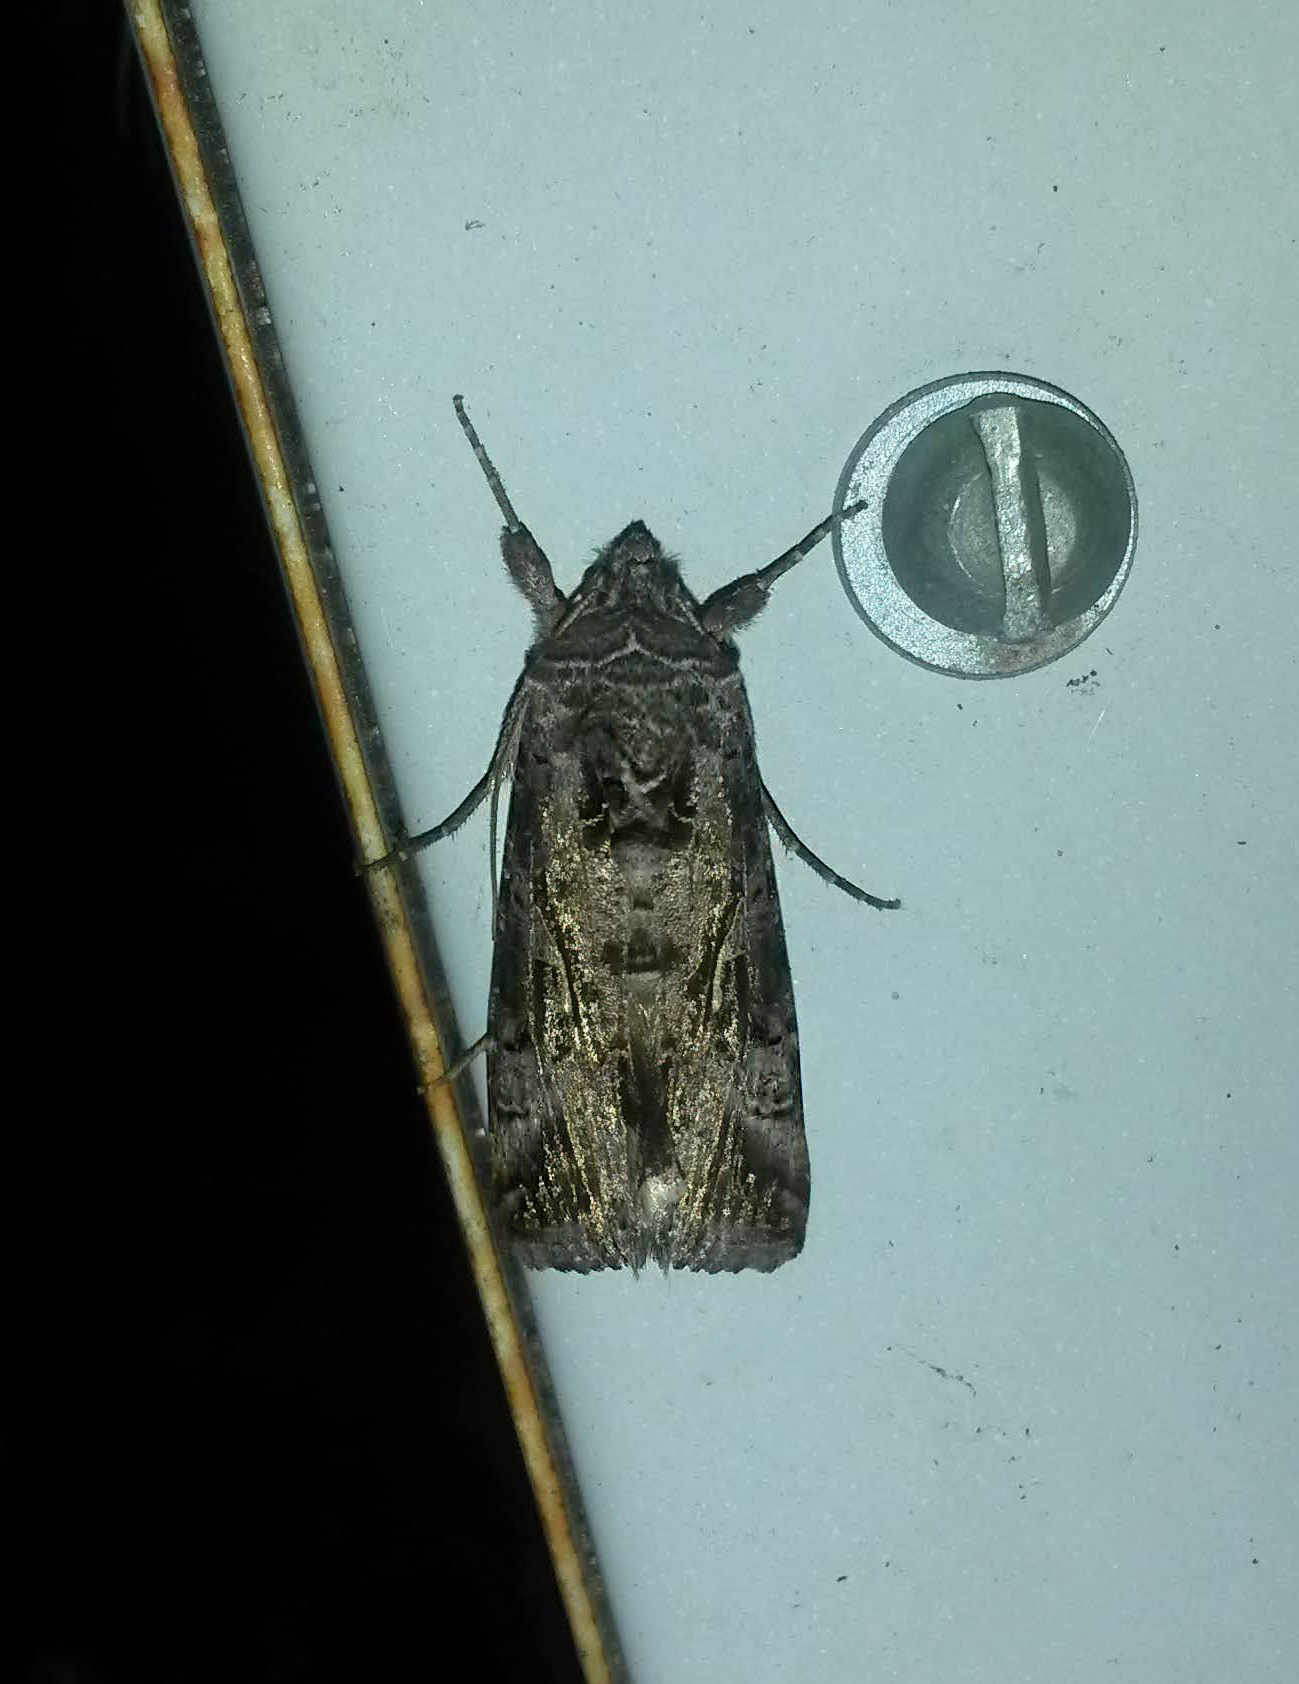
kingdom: Animalia
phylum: Arthropoda
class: Insecta
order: Lepidoptera
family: Noctuidae
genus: Autographa
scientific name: Autographa gamma
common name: Silver y
